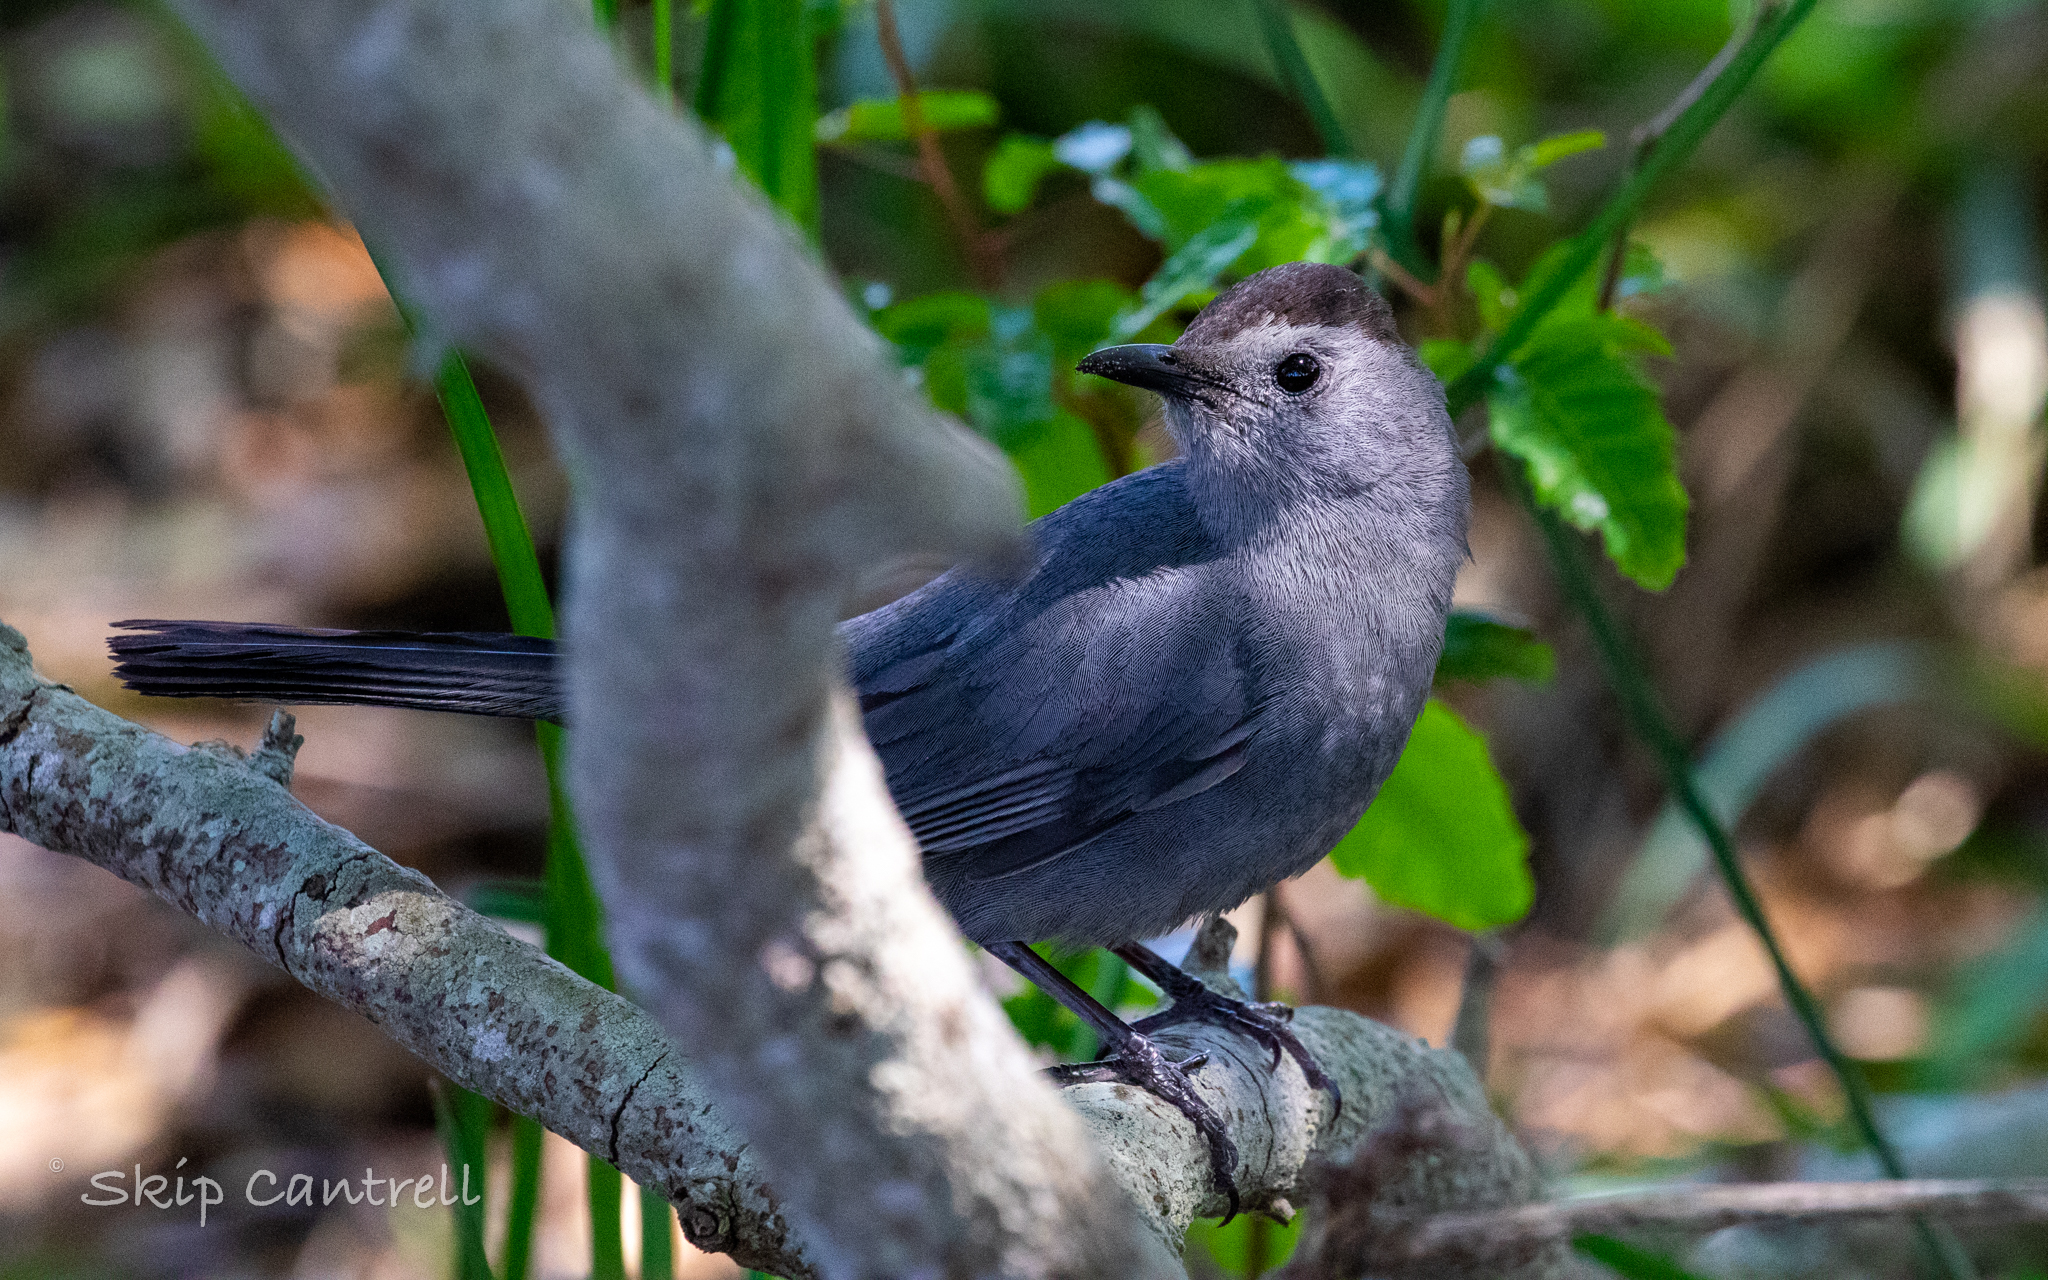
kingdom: Animalia
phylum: Chordata
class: Aves
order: Passeriformes
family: Mimidae
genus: Dumetella
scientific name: Dumetella carolinensis
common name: Gray catbird
